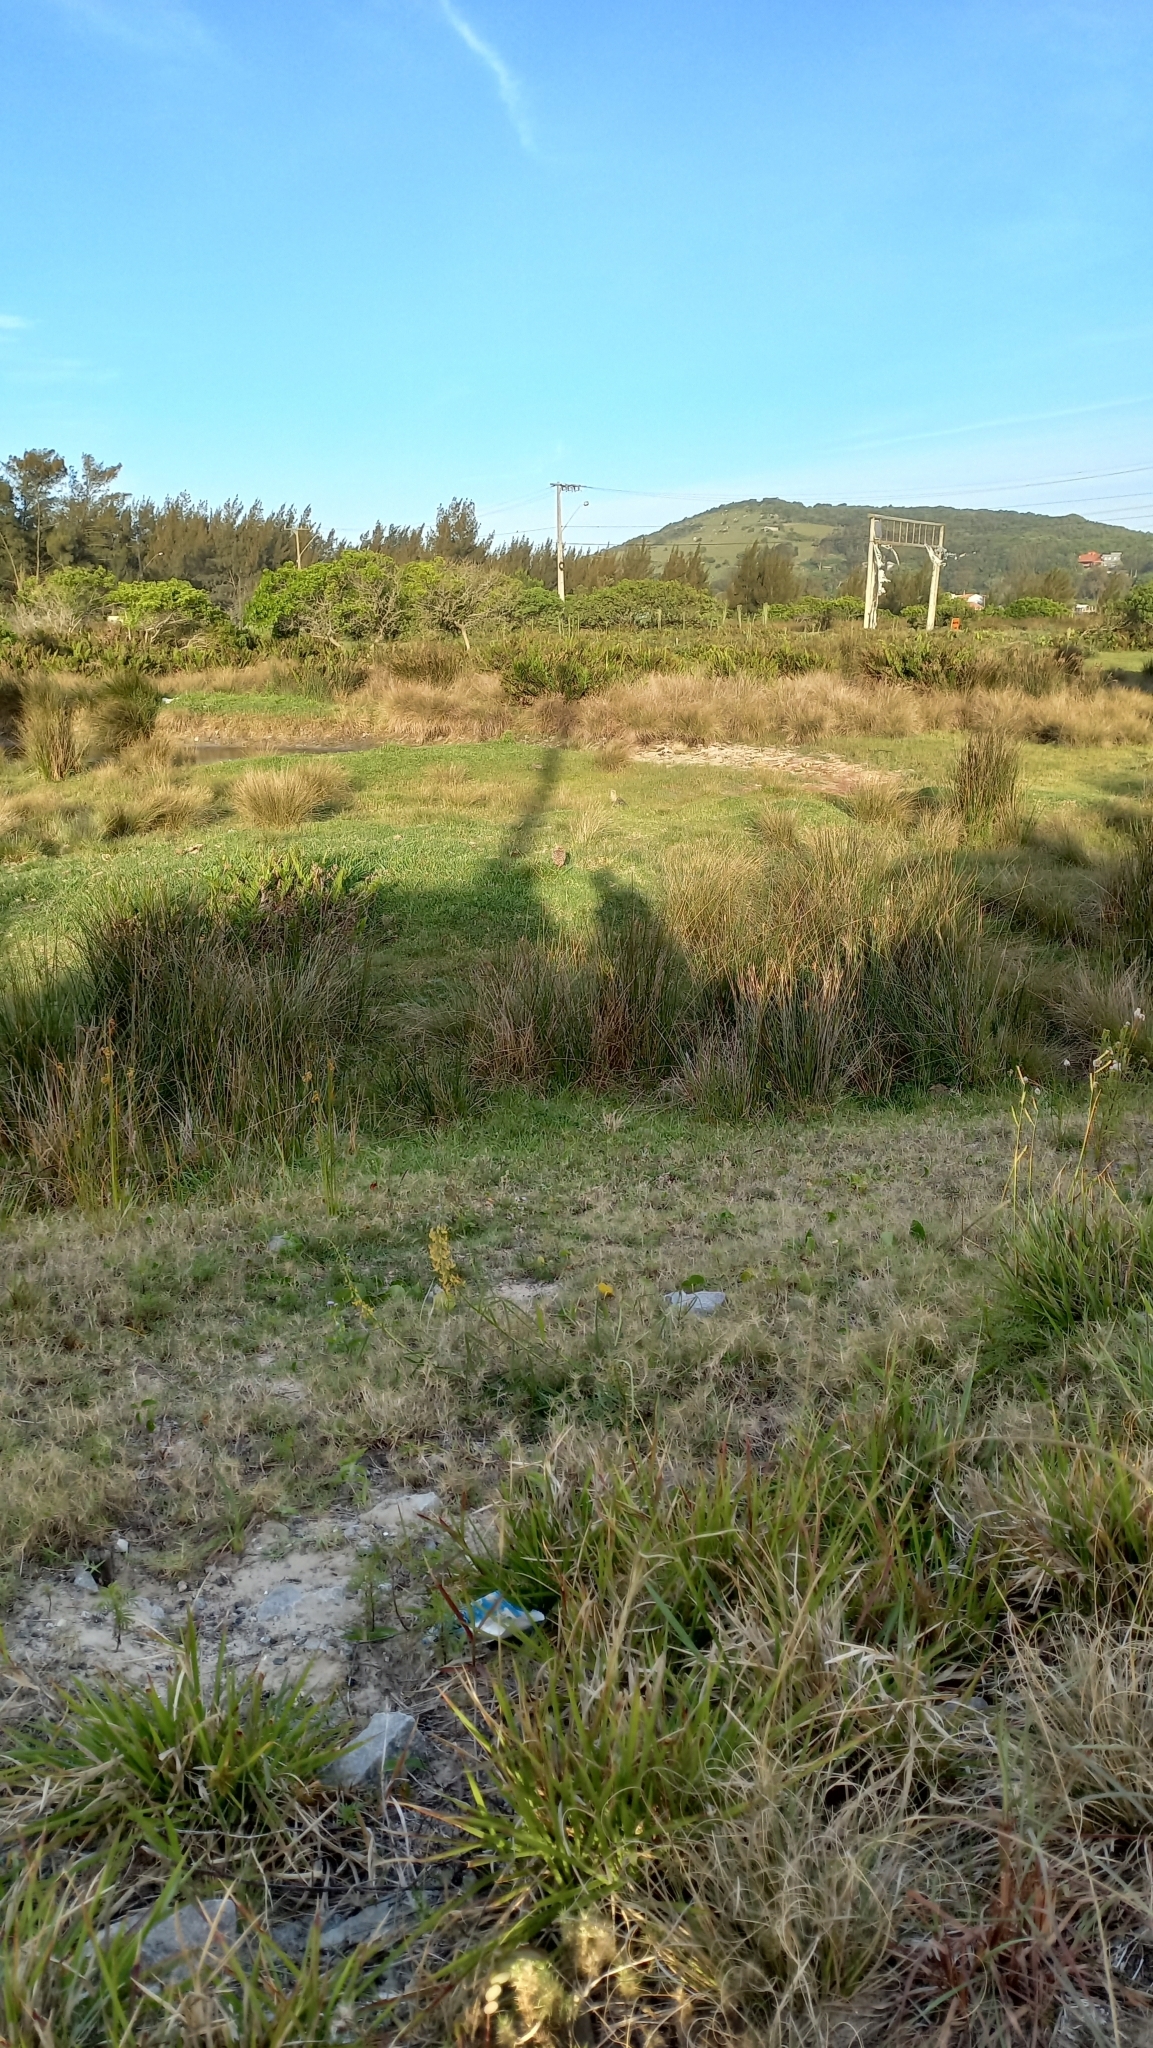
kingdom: Animalia
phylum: Chordata
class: Aves
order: Strigiformes
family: Strigidae
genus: Athene
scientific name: Athene cunicularia
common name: Burrowing owl
